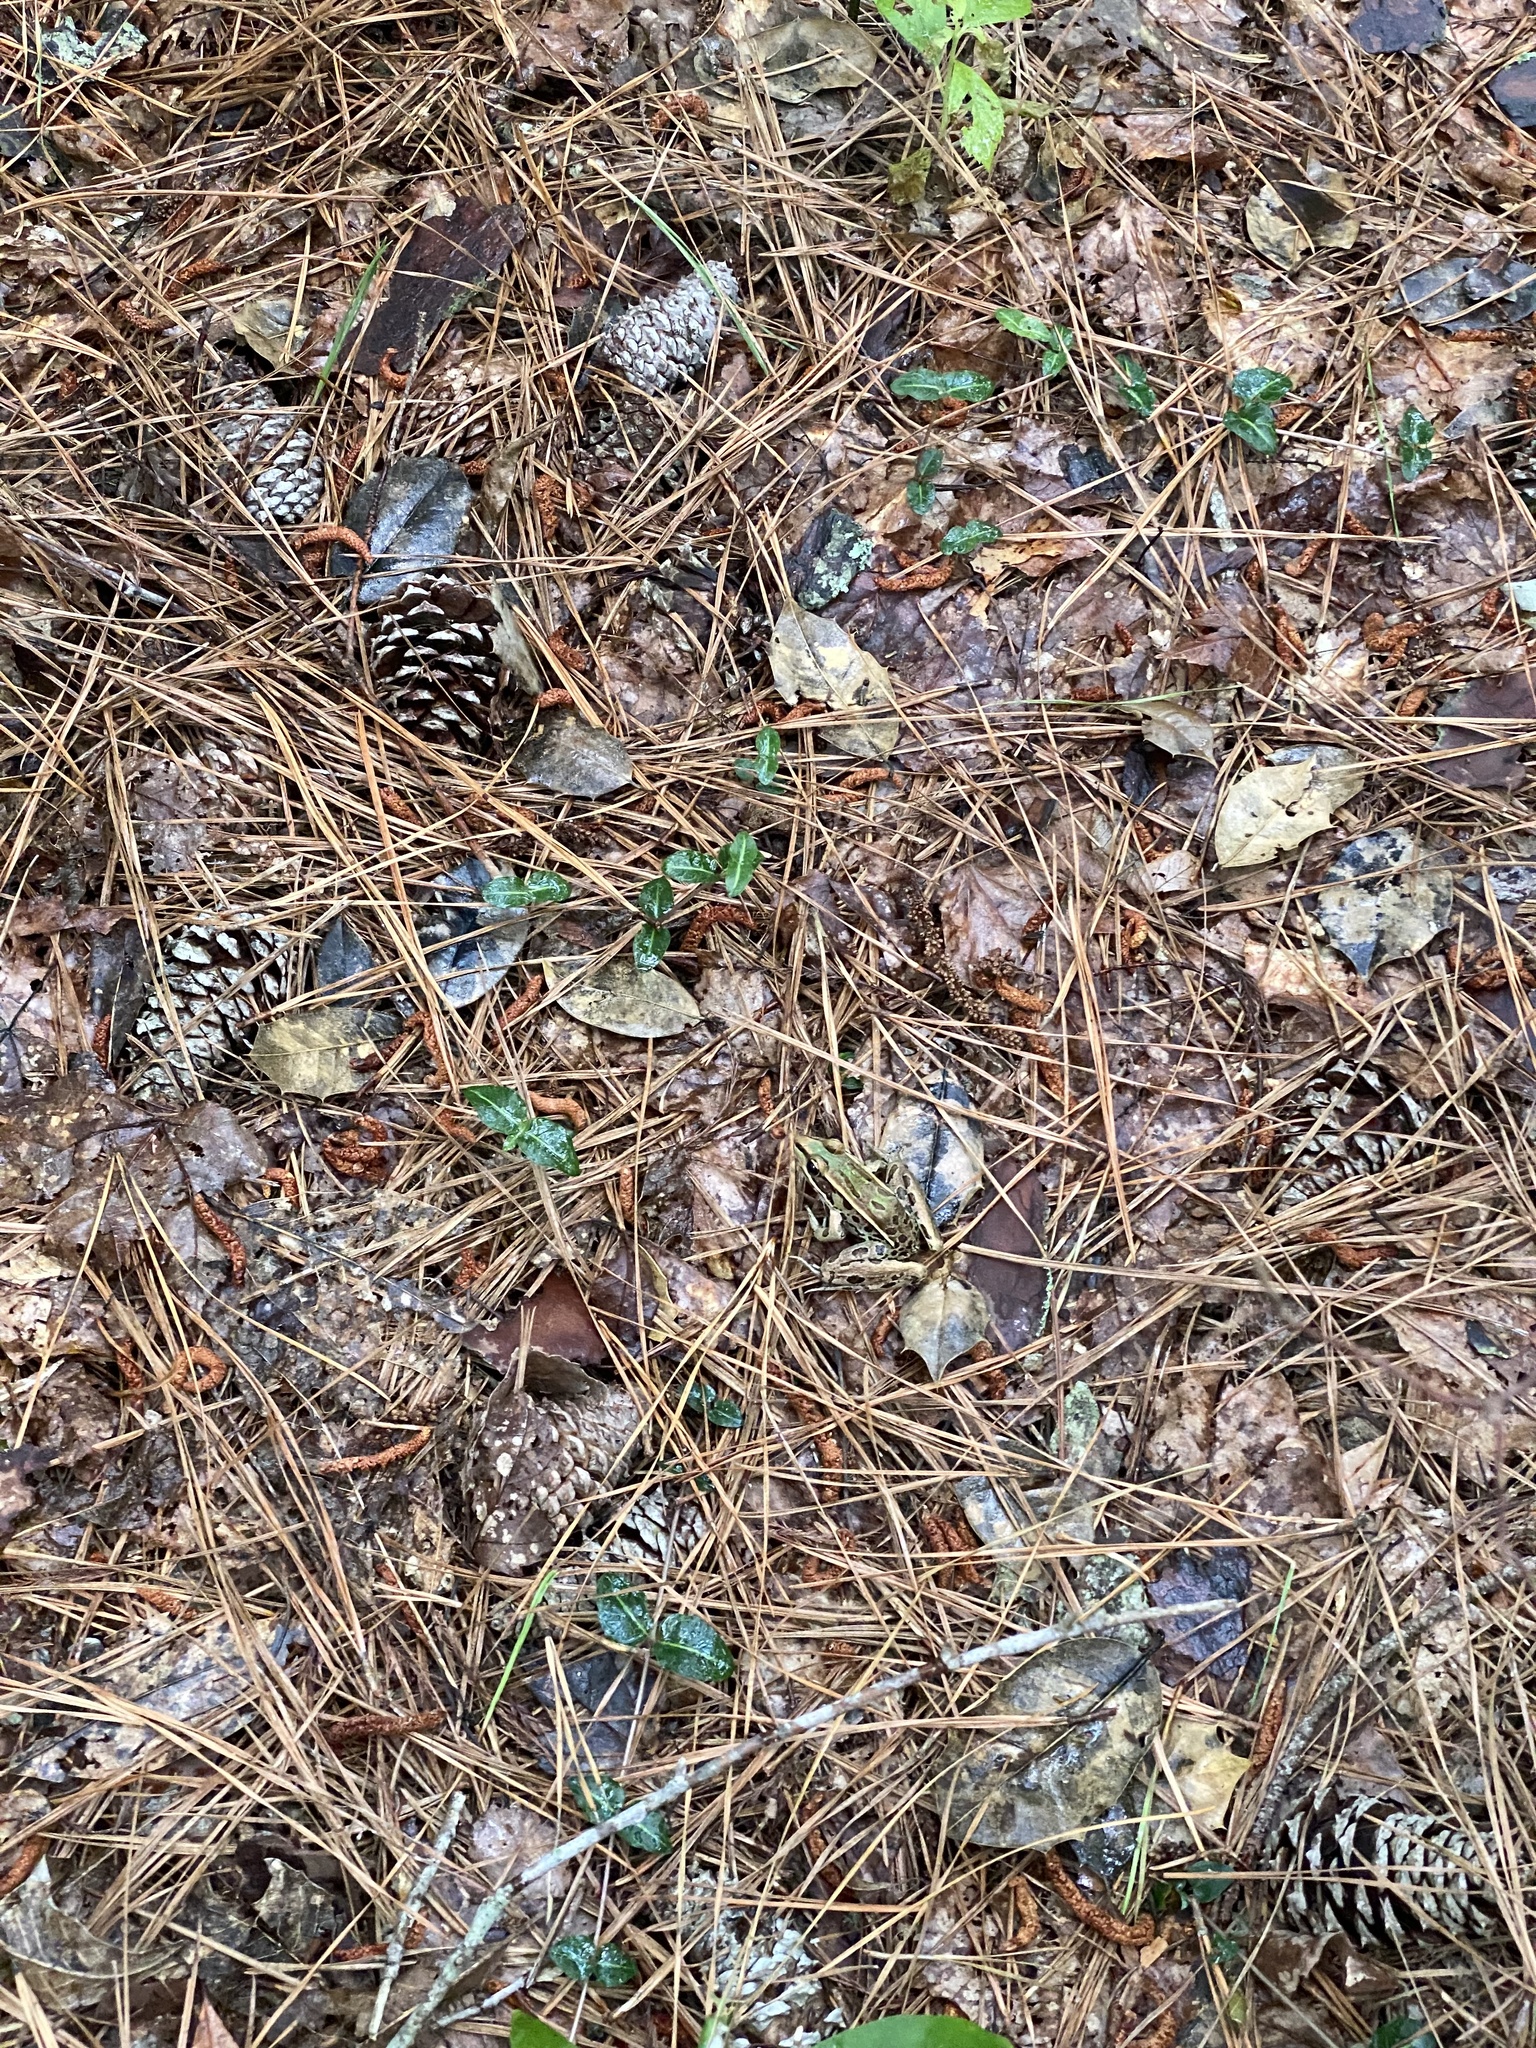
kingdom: Animalia
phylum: Chordata
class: Amphibia
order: Anura
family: Ranidae
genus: Lithobates
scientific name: Lithobates sphenocephalus
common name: Southern leopard frog
